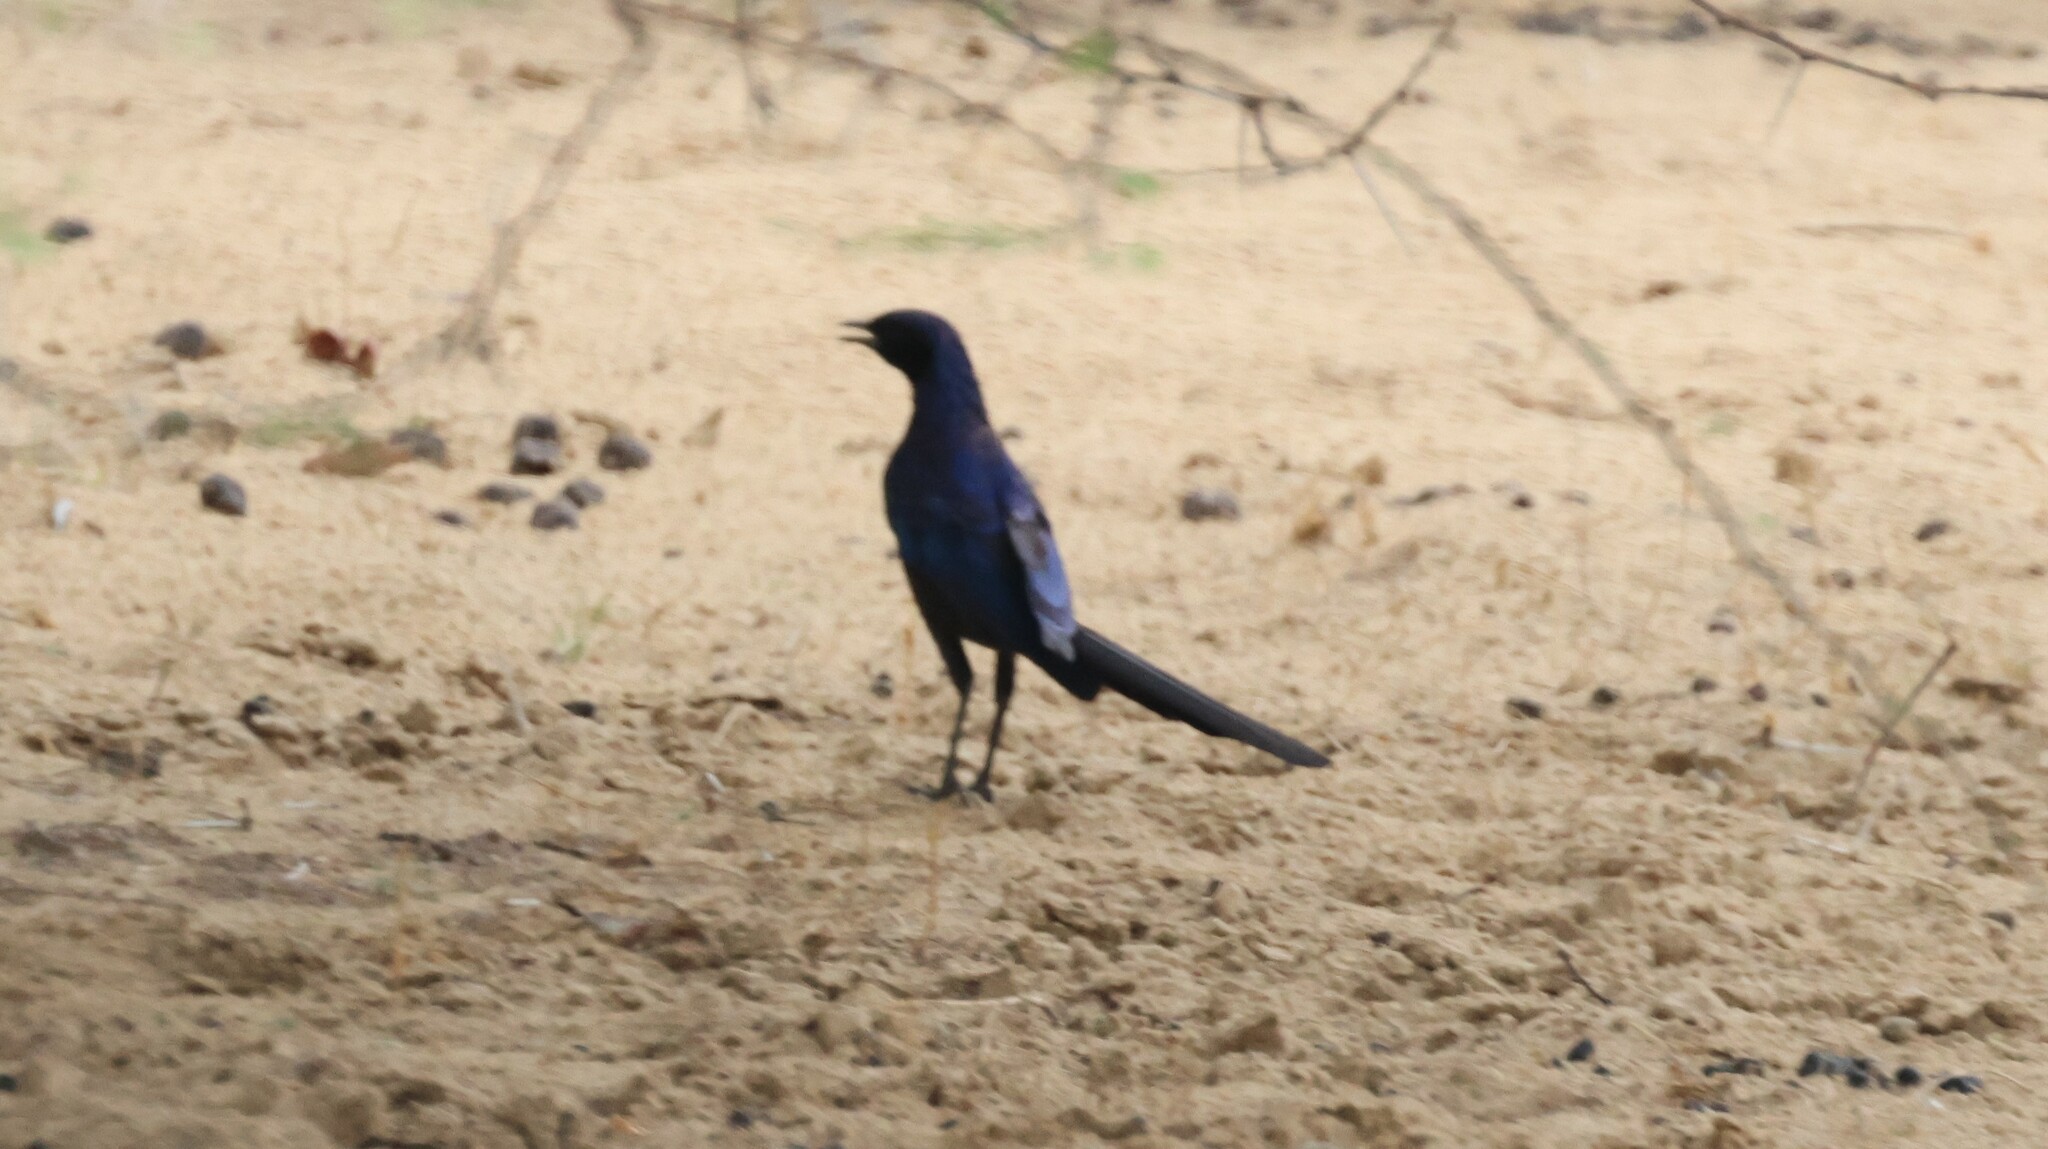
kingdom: Animalia
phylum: Chordata
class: Aves
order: Passeriformes
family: Sturnidae
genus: Lamprotornis
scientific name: Lamprotornis mevesii
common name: Meves's starling
